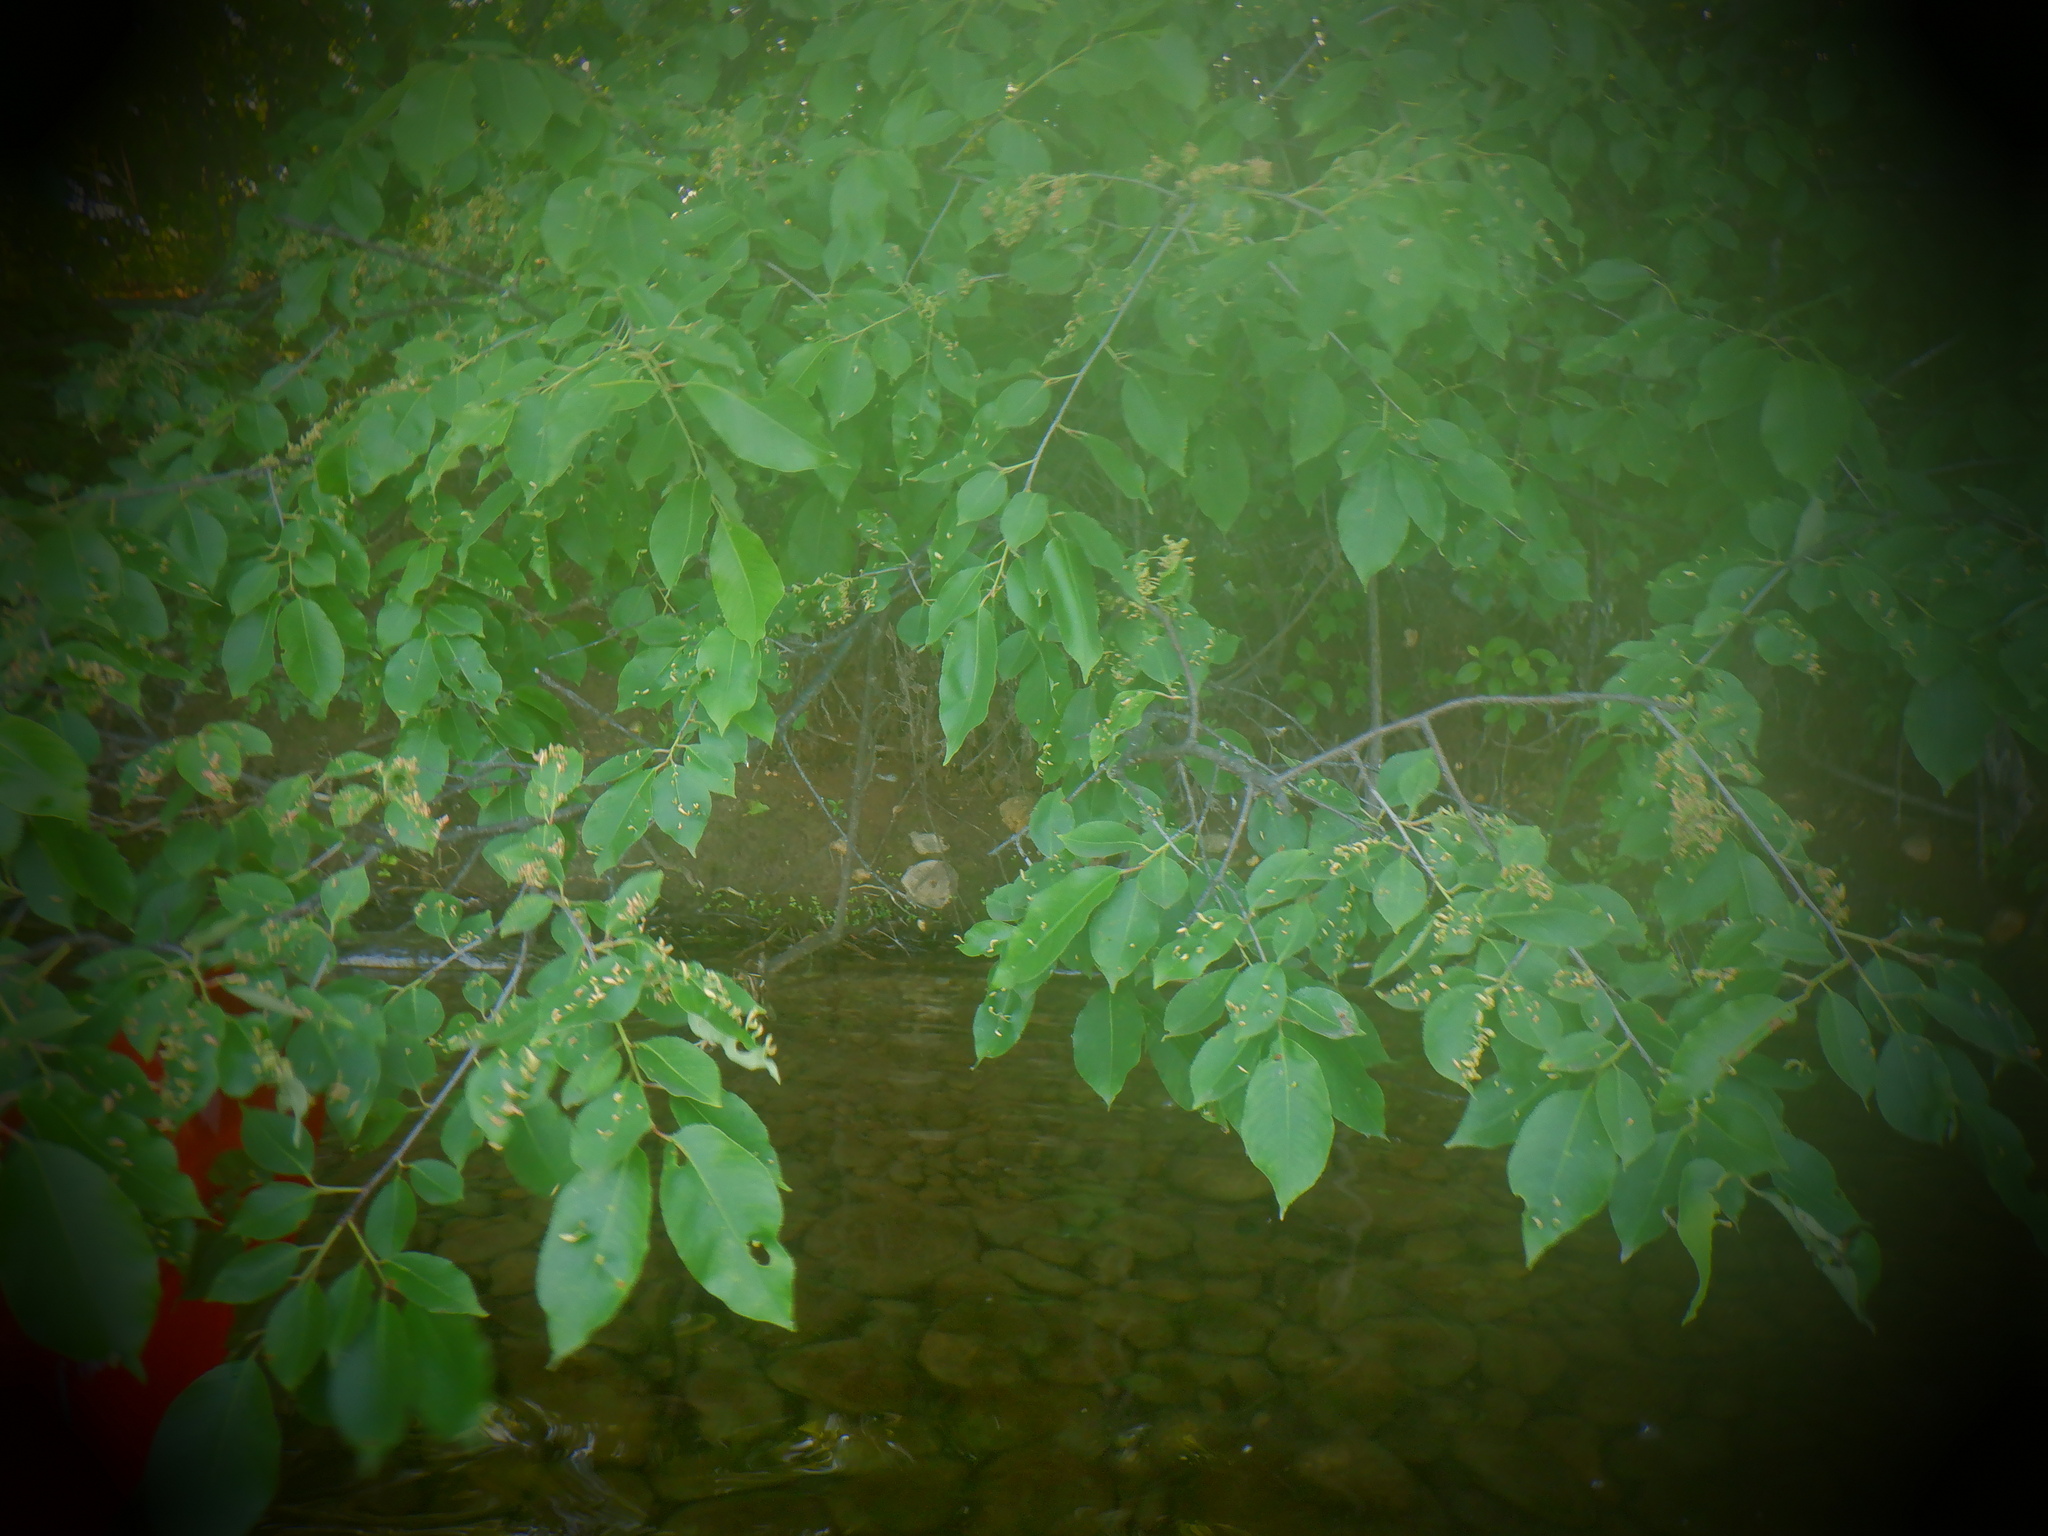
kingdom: Animalia
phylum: Arthropoda
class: Arachnida
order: Trombidiformes
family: Eriophyidae
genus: Eriophyes
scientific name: Eriophyes
